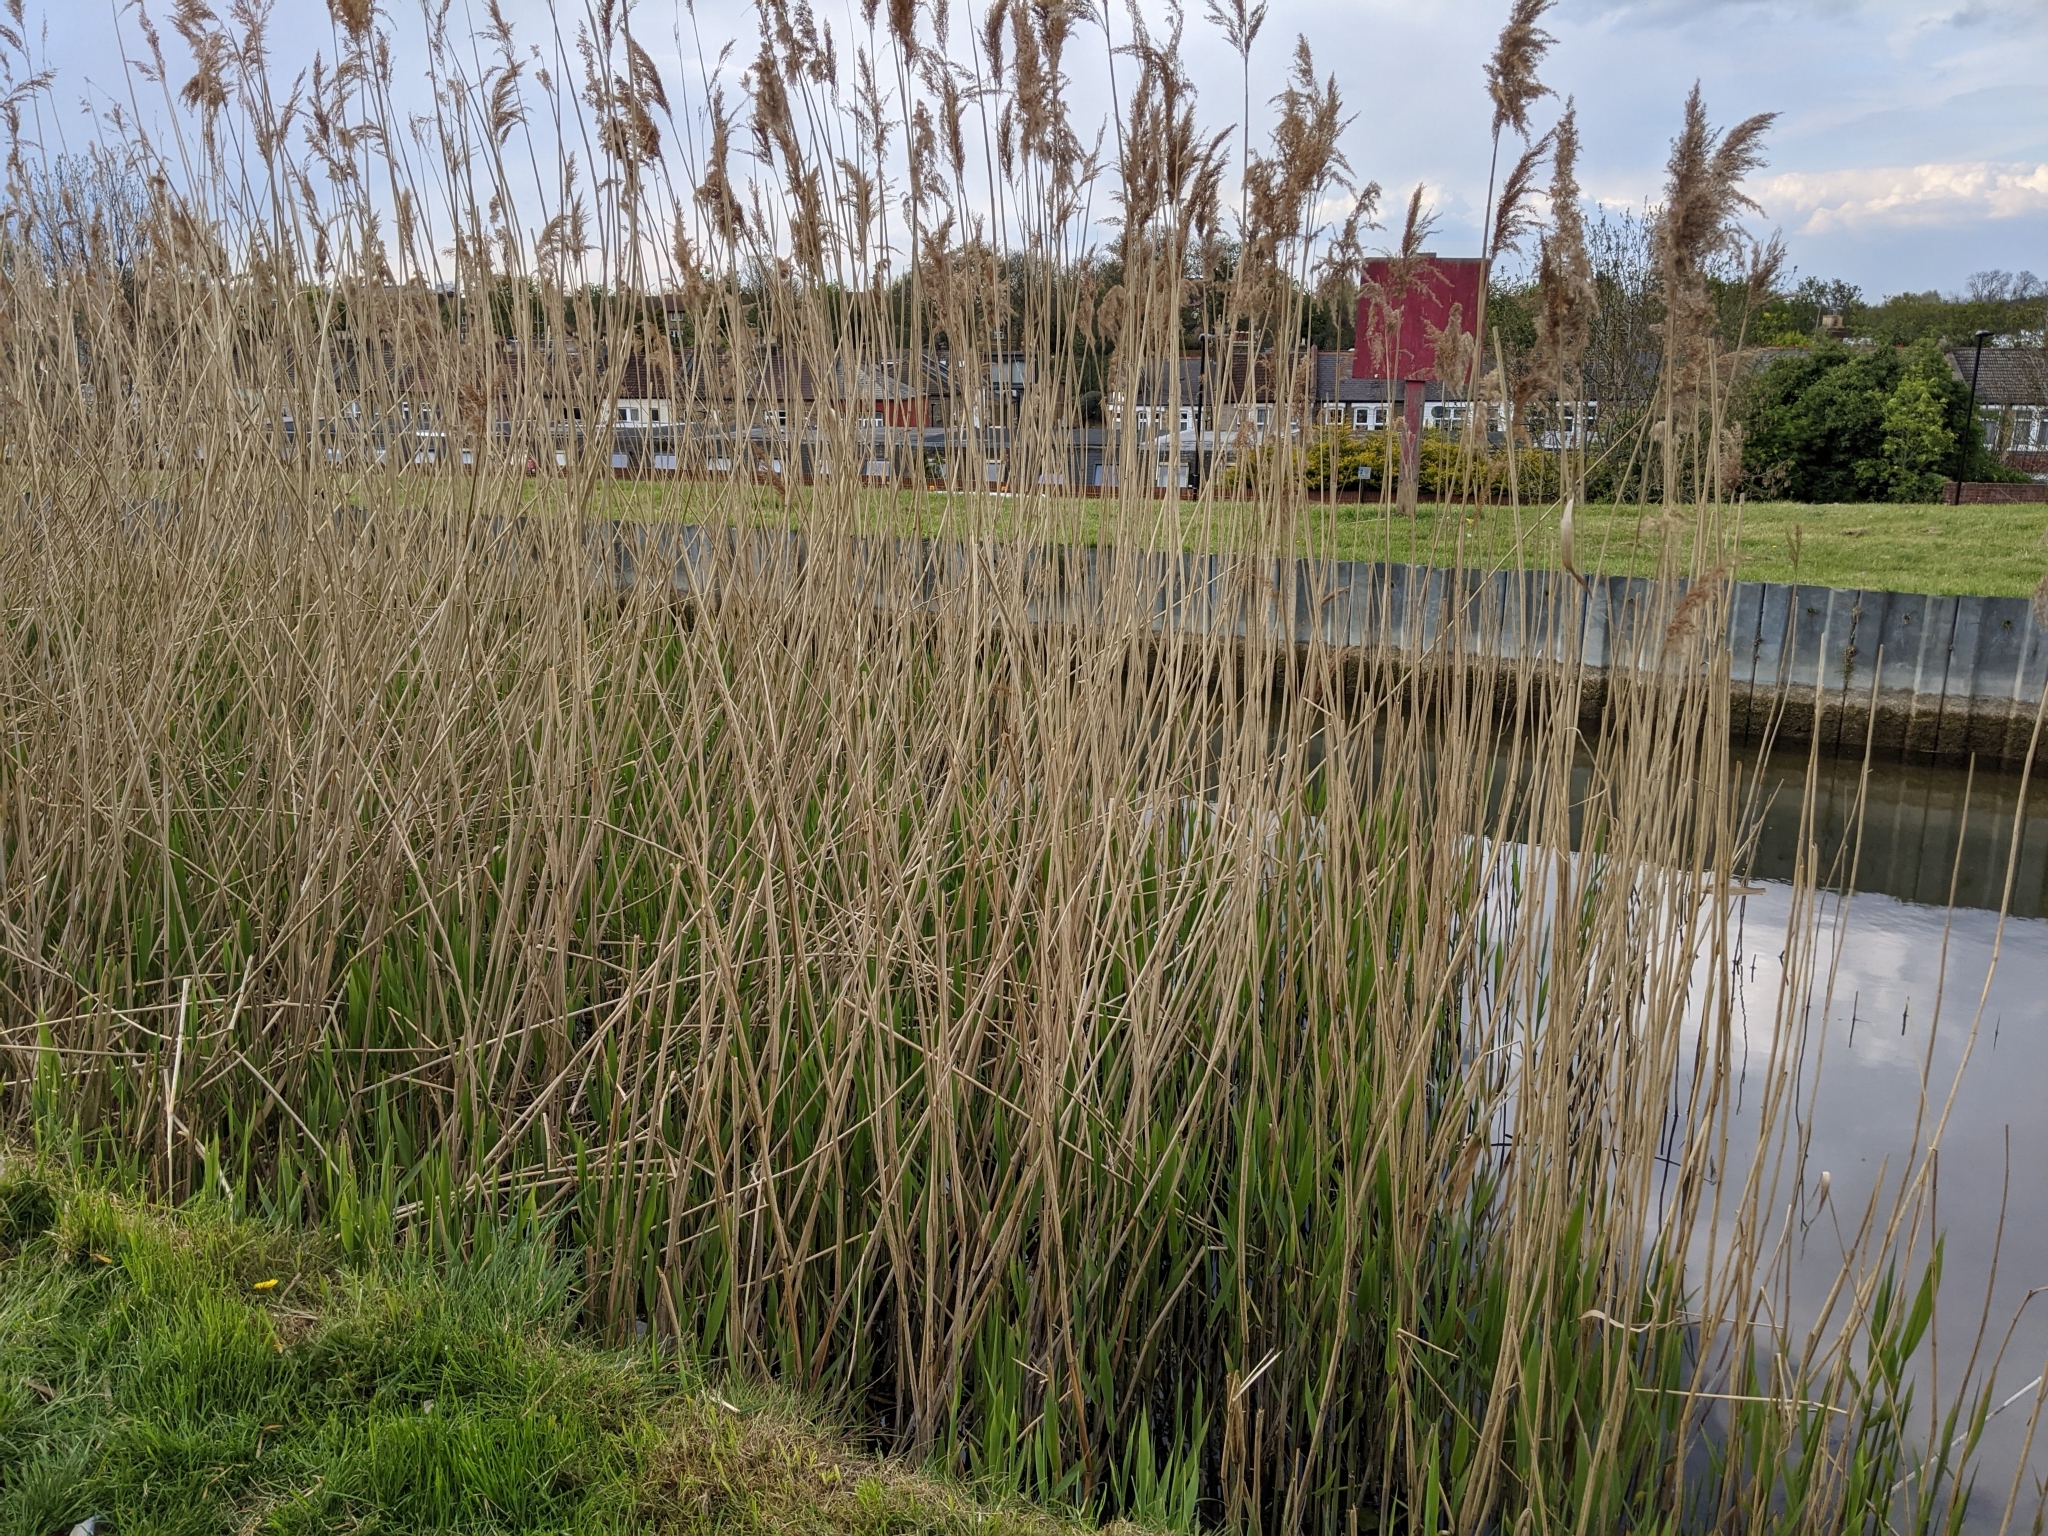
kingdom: Plantae
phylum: Tracheophyta
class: Liliopsida
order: Poales
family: Poaceae
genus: Phragmites
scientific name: Phragmites australis
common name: Common reed
